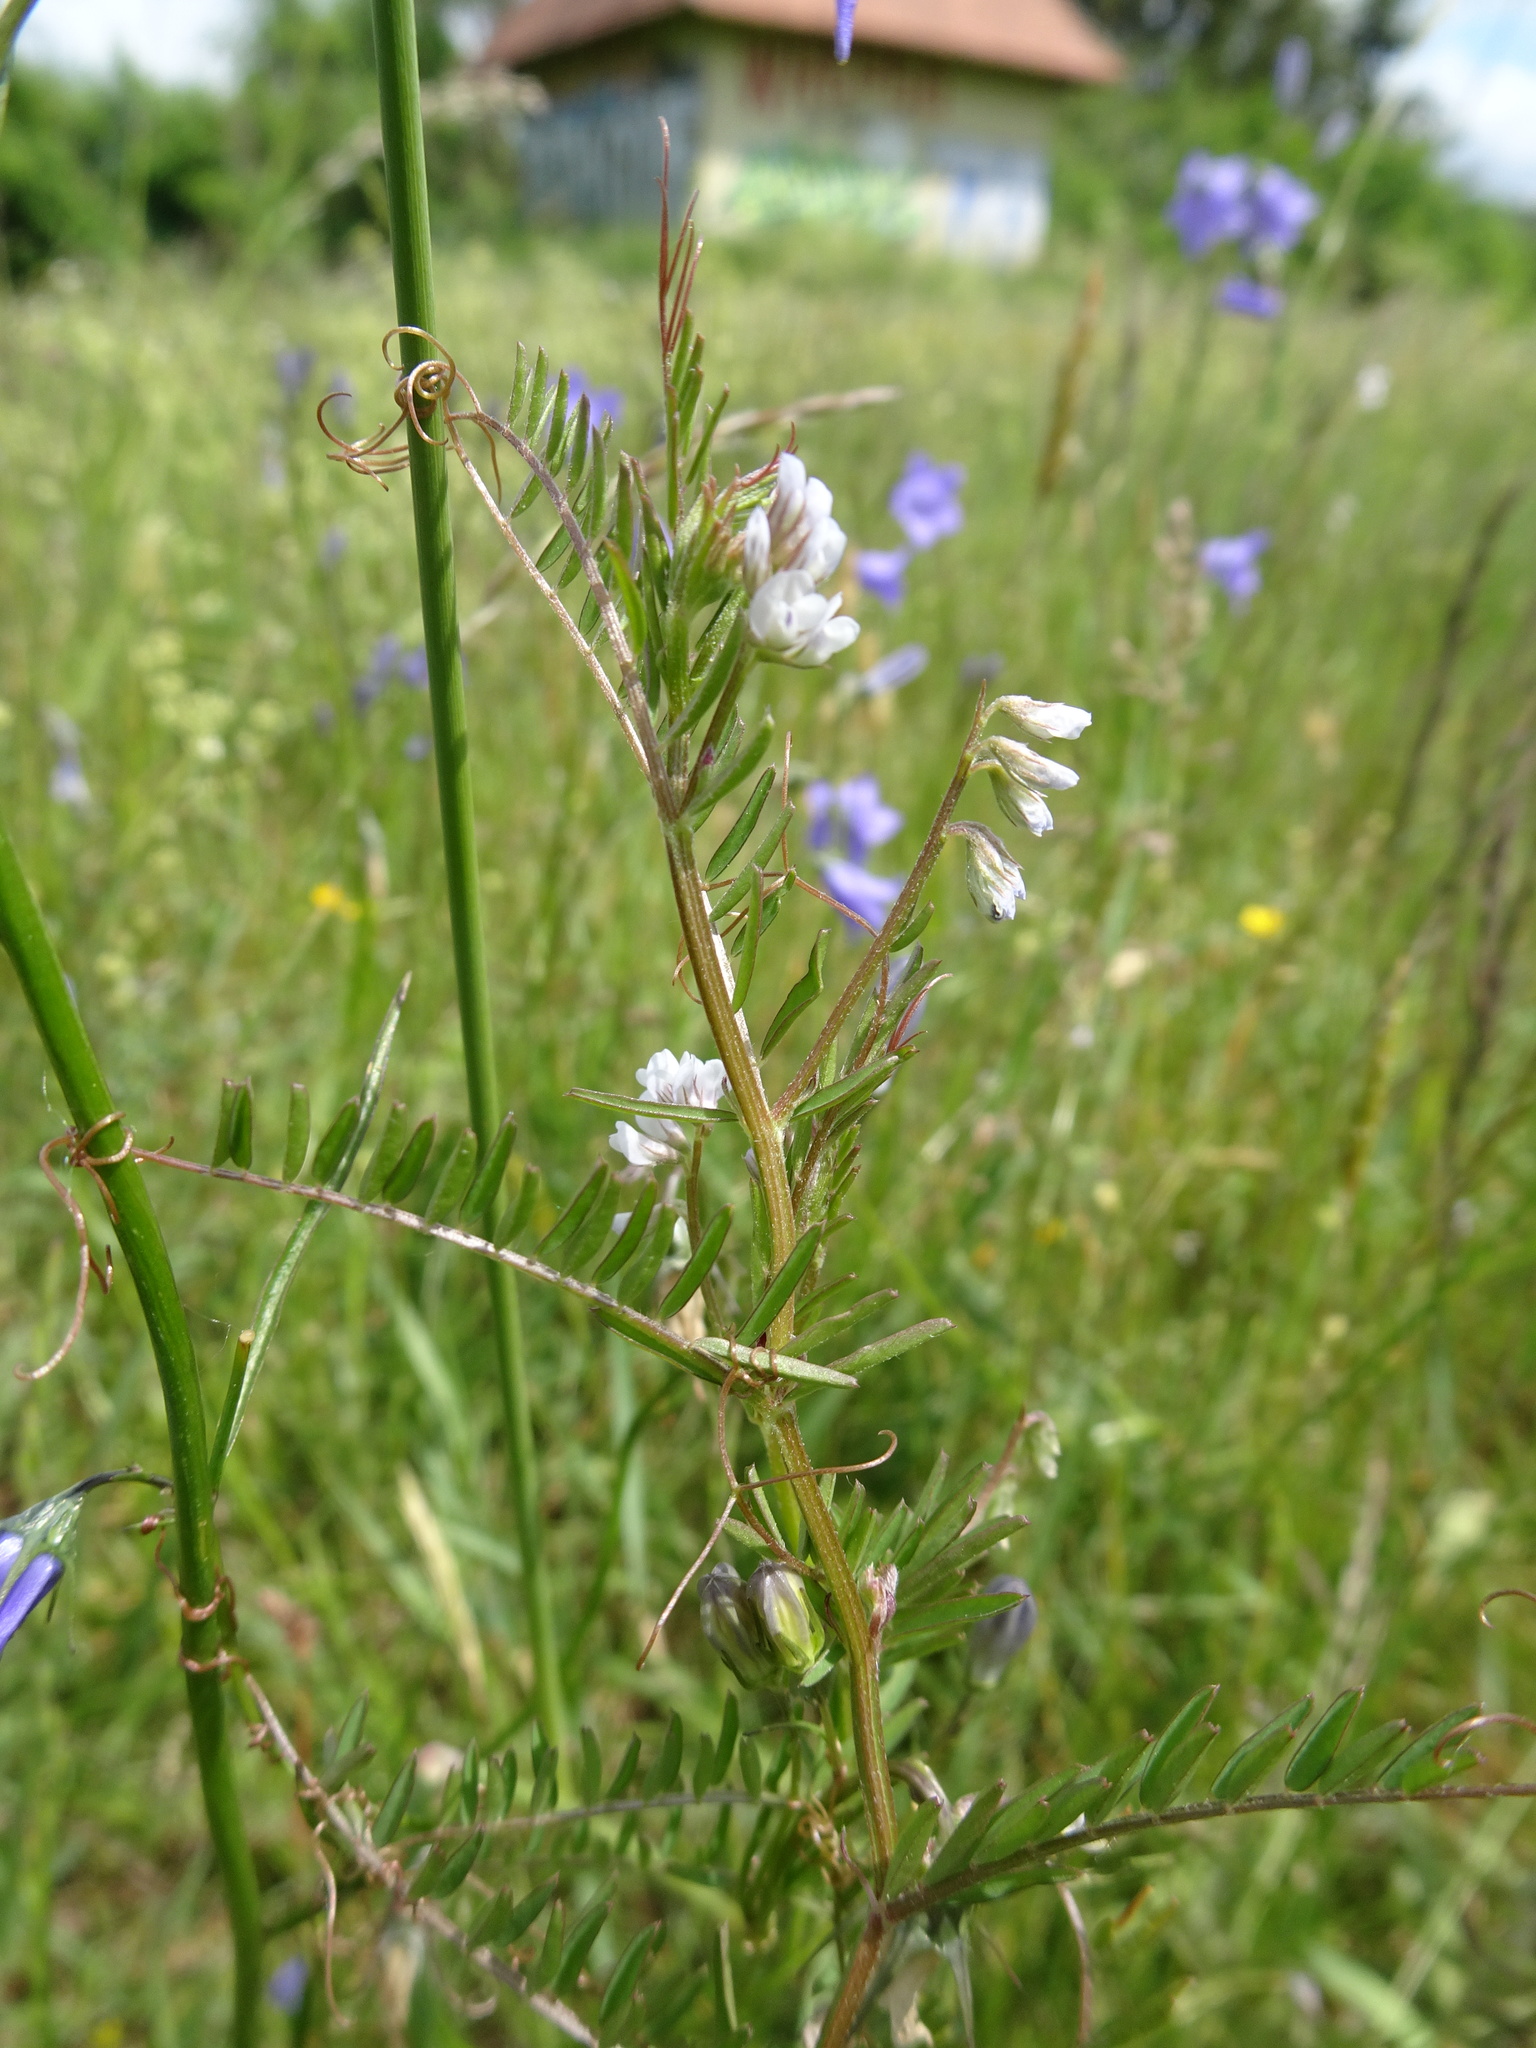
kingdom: Plantae
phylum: Tracheophyta
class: Magnoliopsida
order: Fabales
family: Fabaceae
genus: Vicia
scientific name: Vicia hirsuta
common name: Tiny vetch
